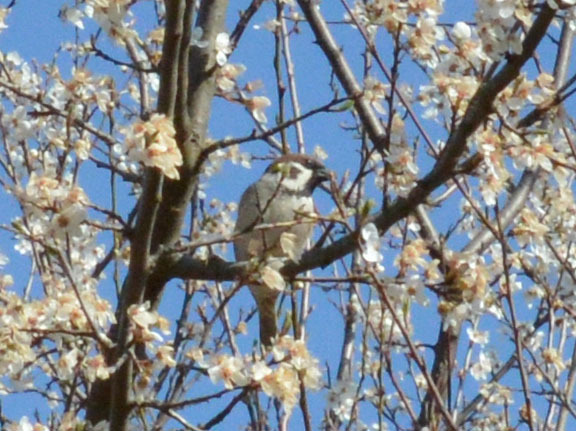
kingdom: Animalia
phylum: Chordata
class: Aves
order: Passeriformes
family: Passeridae
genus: Passer
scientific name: Passer montanus
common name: Eurasian tree sparrow
